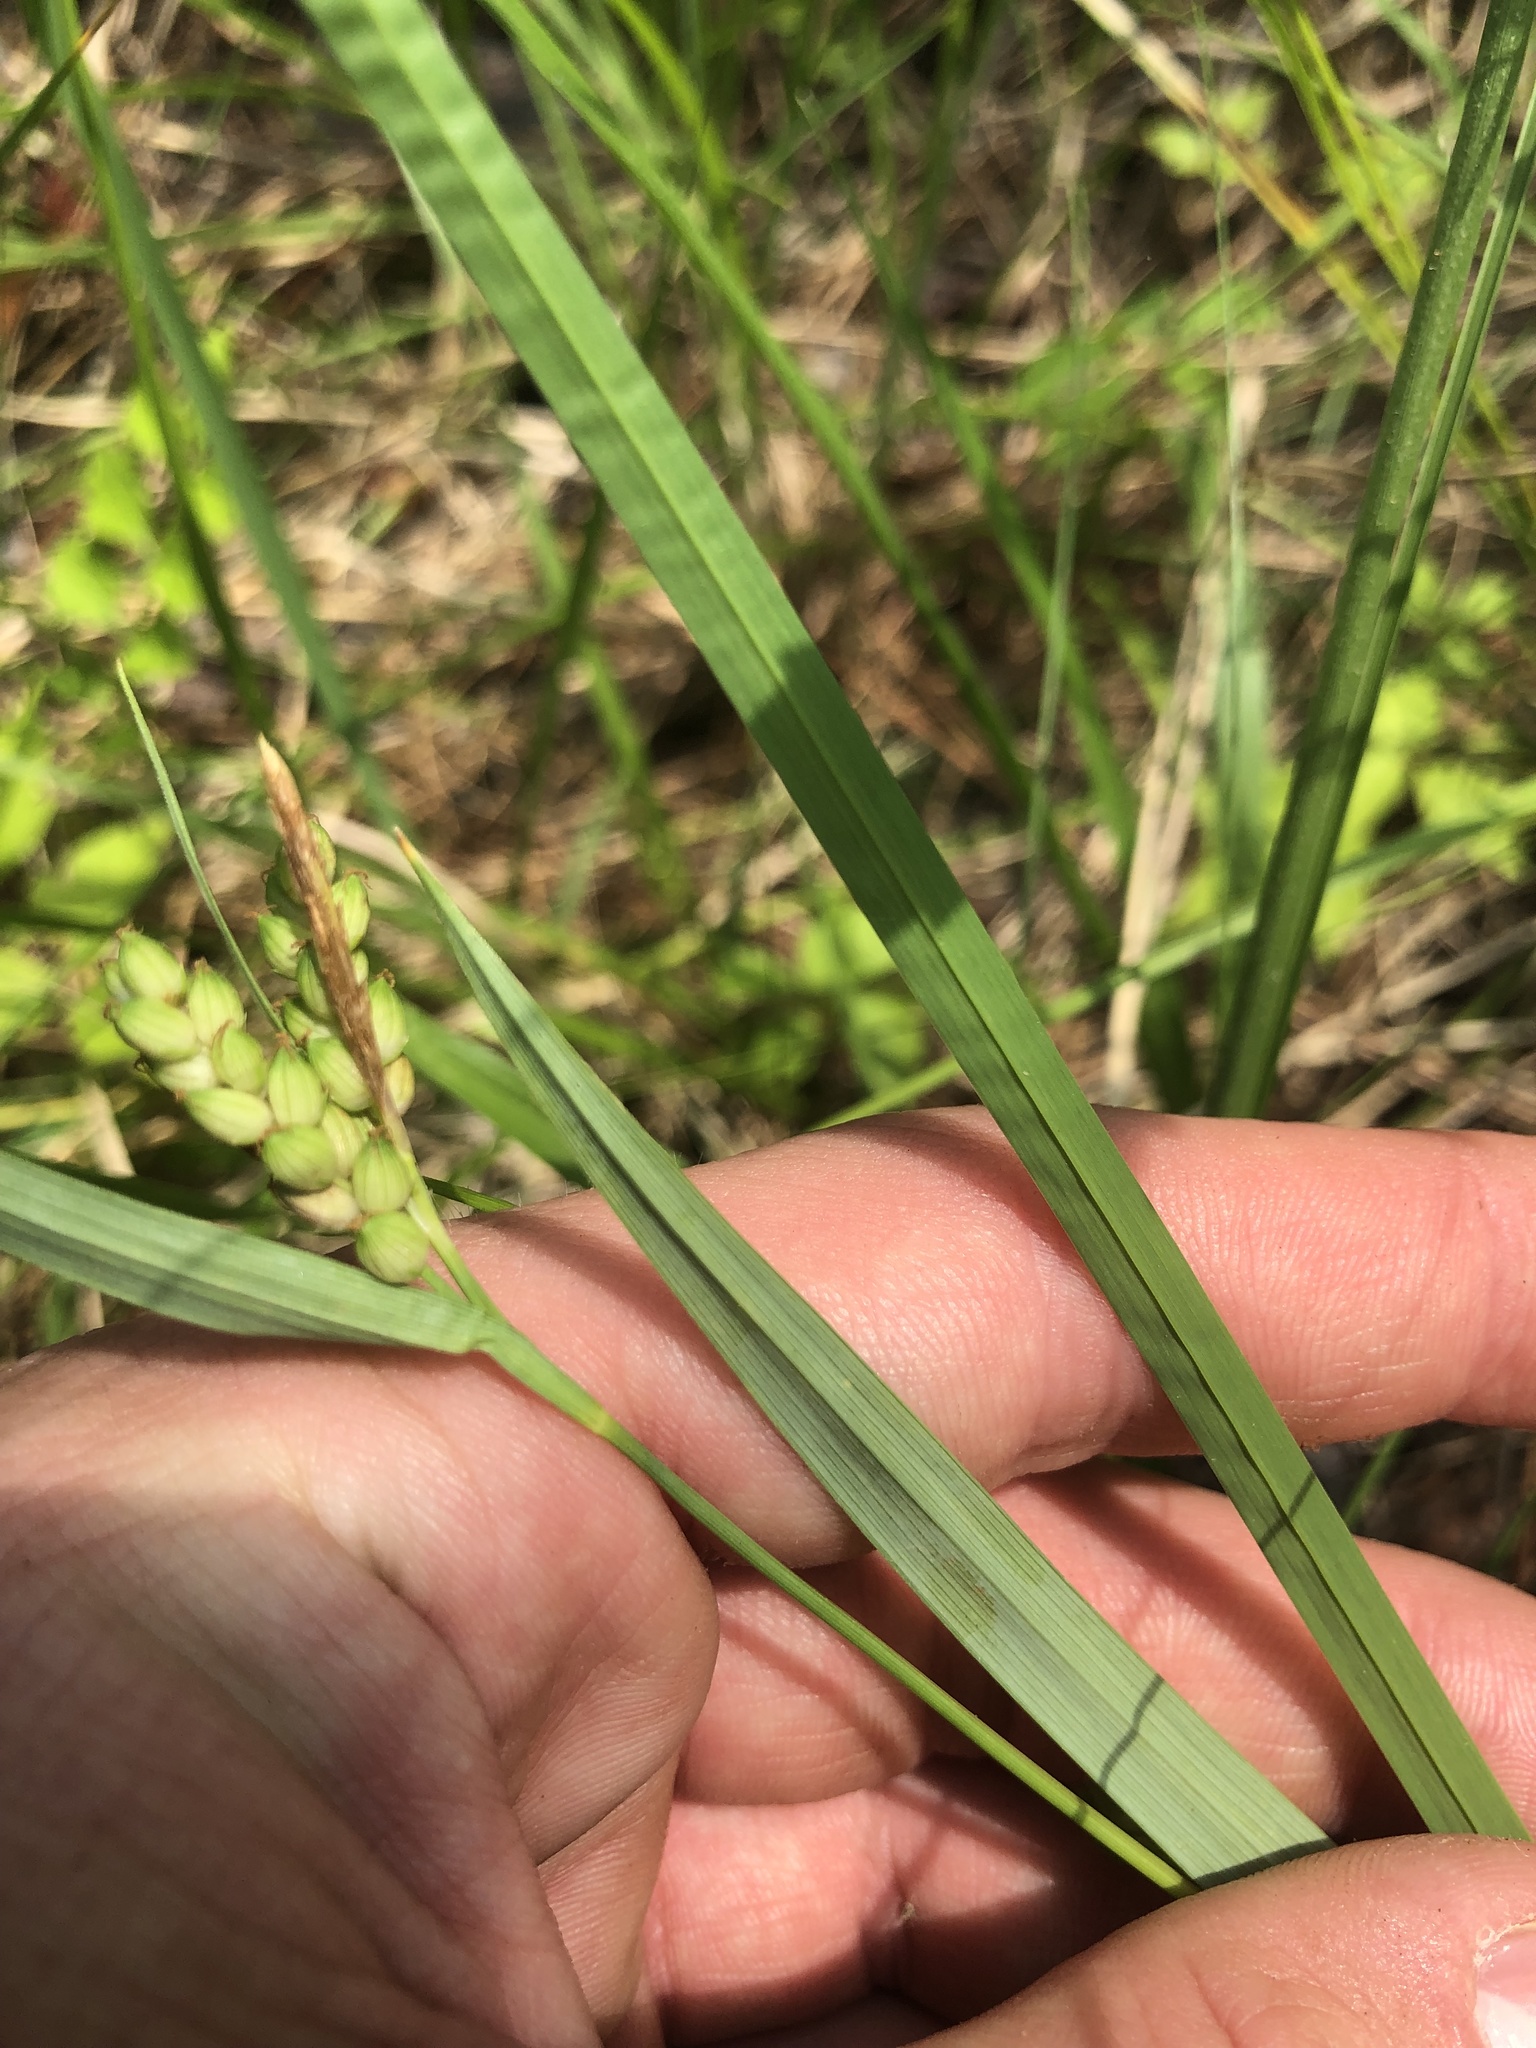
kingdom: Plantae
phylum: Tracheophyta
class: Liliopsida
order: Poales
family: Cyperaceae
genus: Carex
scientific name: Carex glaucodea
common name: Blue sedge
